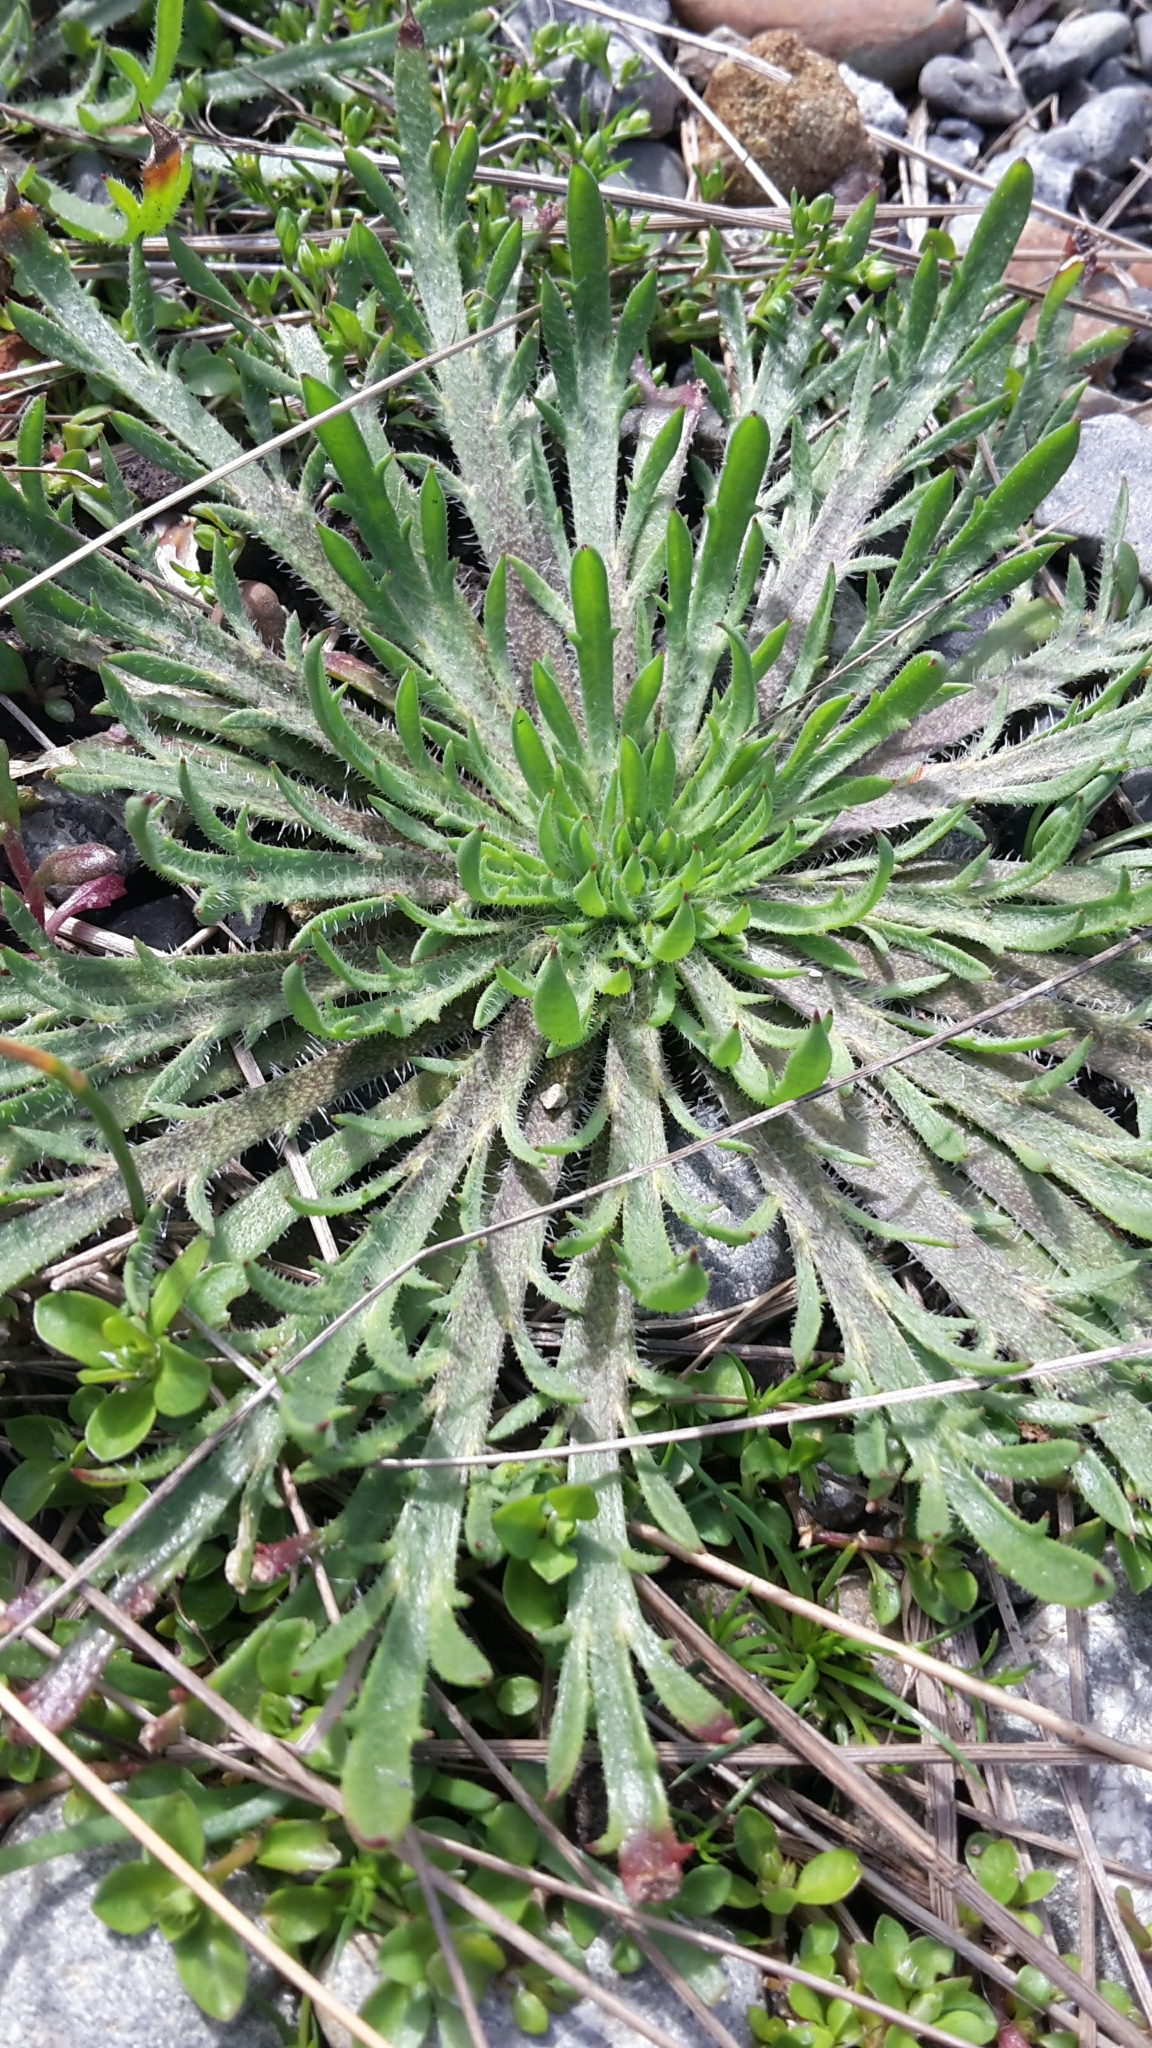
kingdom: Plantae
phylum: Tracheophyta
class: Magnoliopsida
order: Lamiales
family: Plantaginaceae
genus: Plantago
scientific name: Plantago coronopus
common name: Buck's-horn plantain
